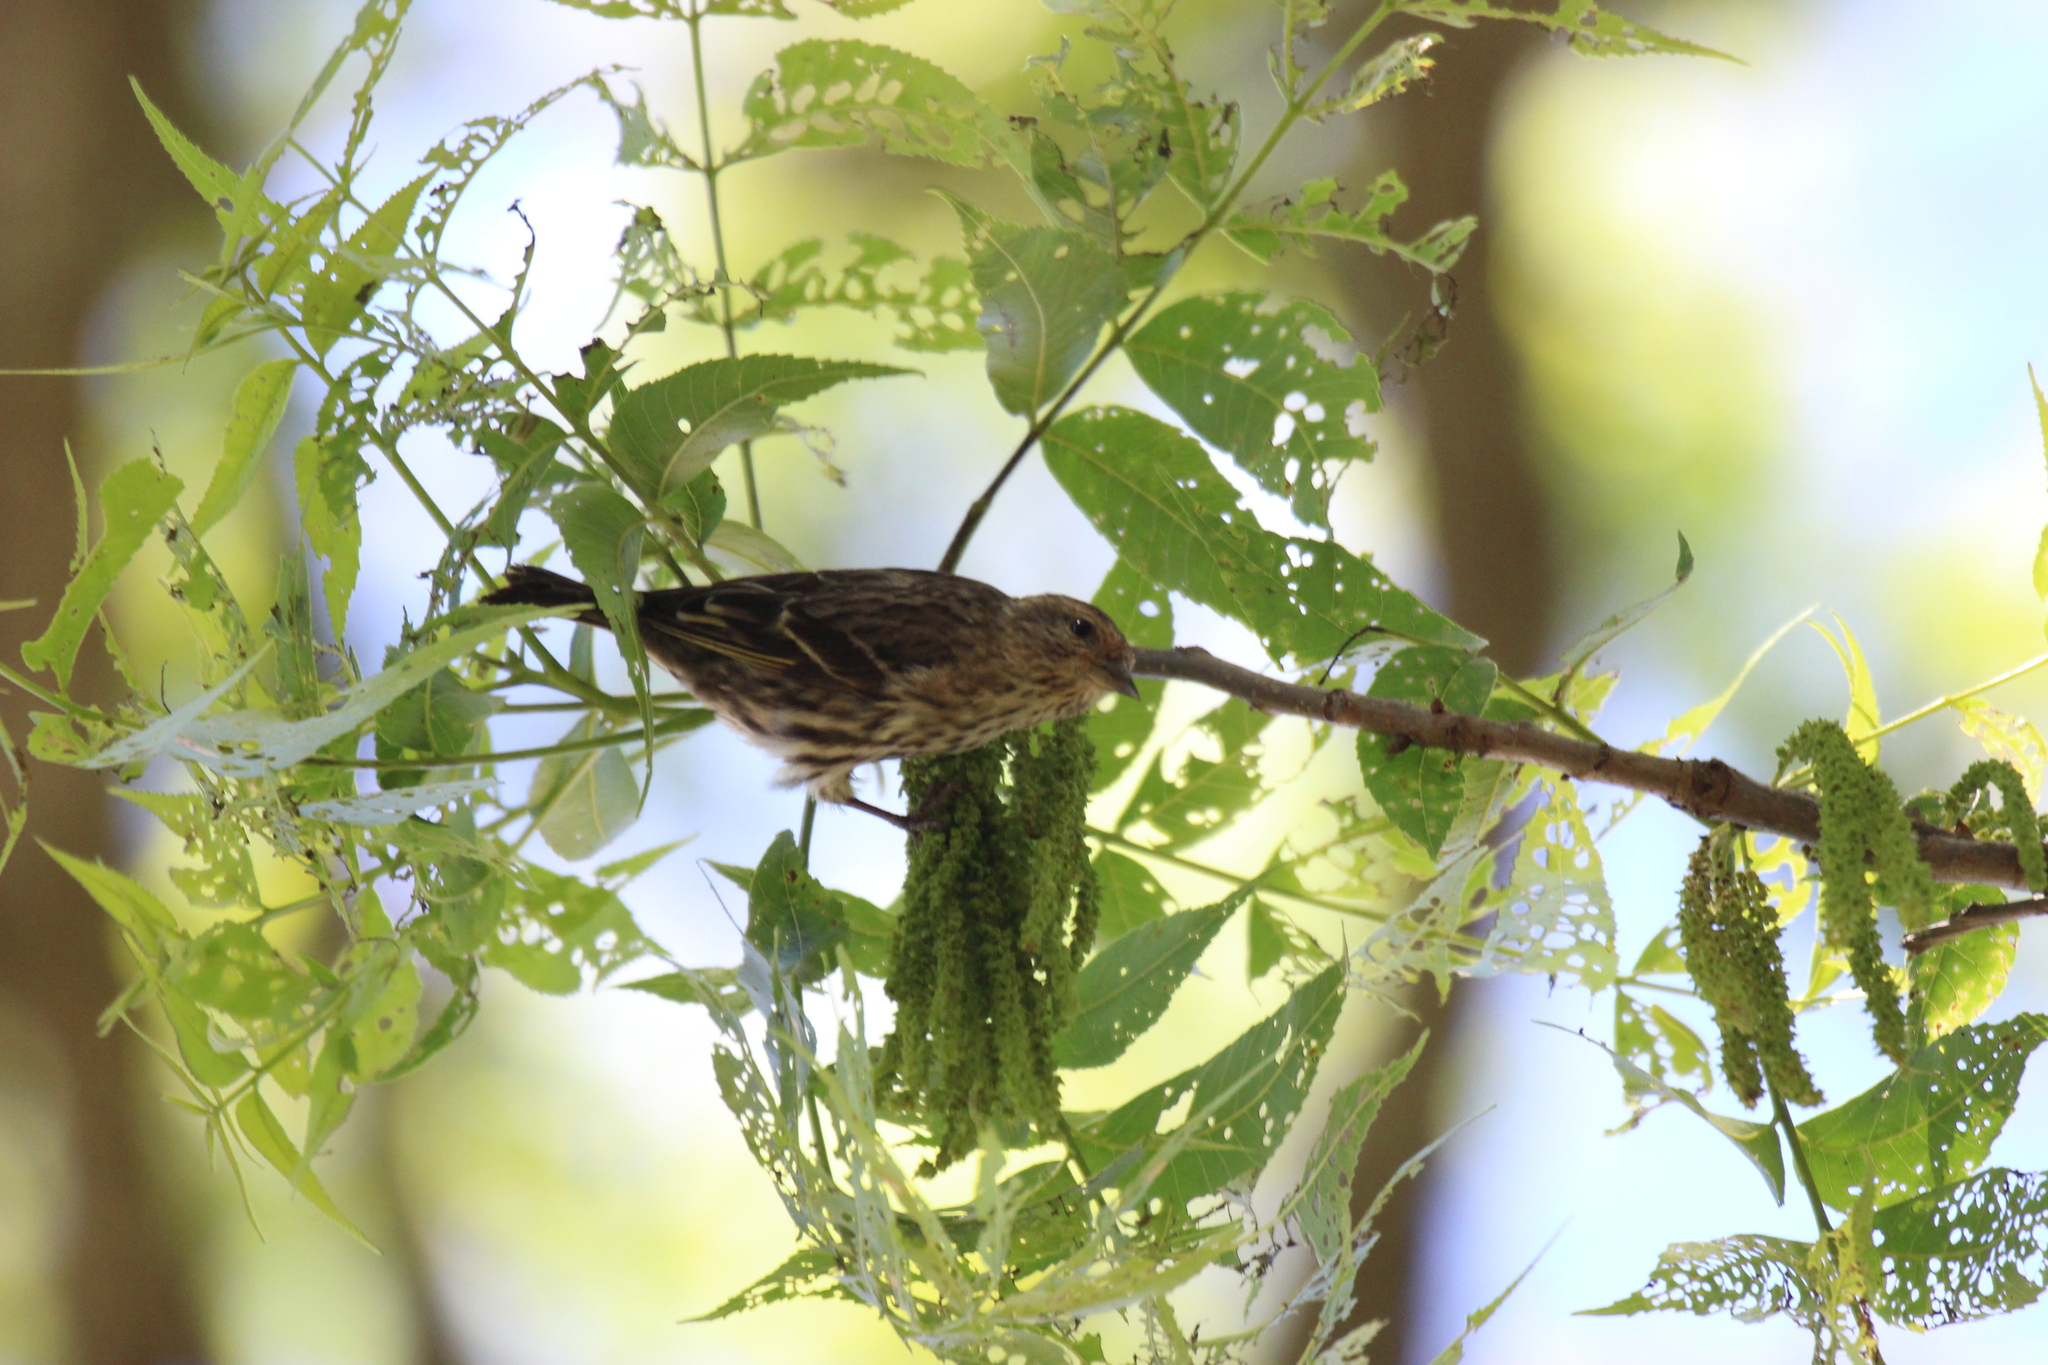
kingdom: Animalia
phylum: Chordata
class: Aves
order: Passeriformes
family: Fringillidae
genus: Spinus
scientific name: Spinus pinus
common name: Pine siskin
